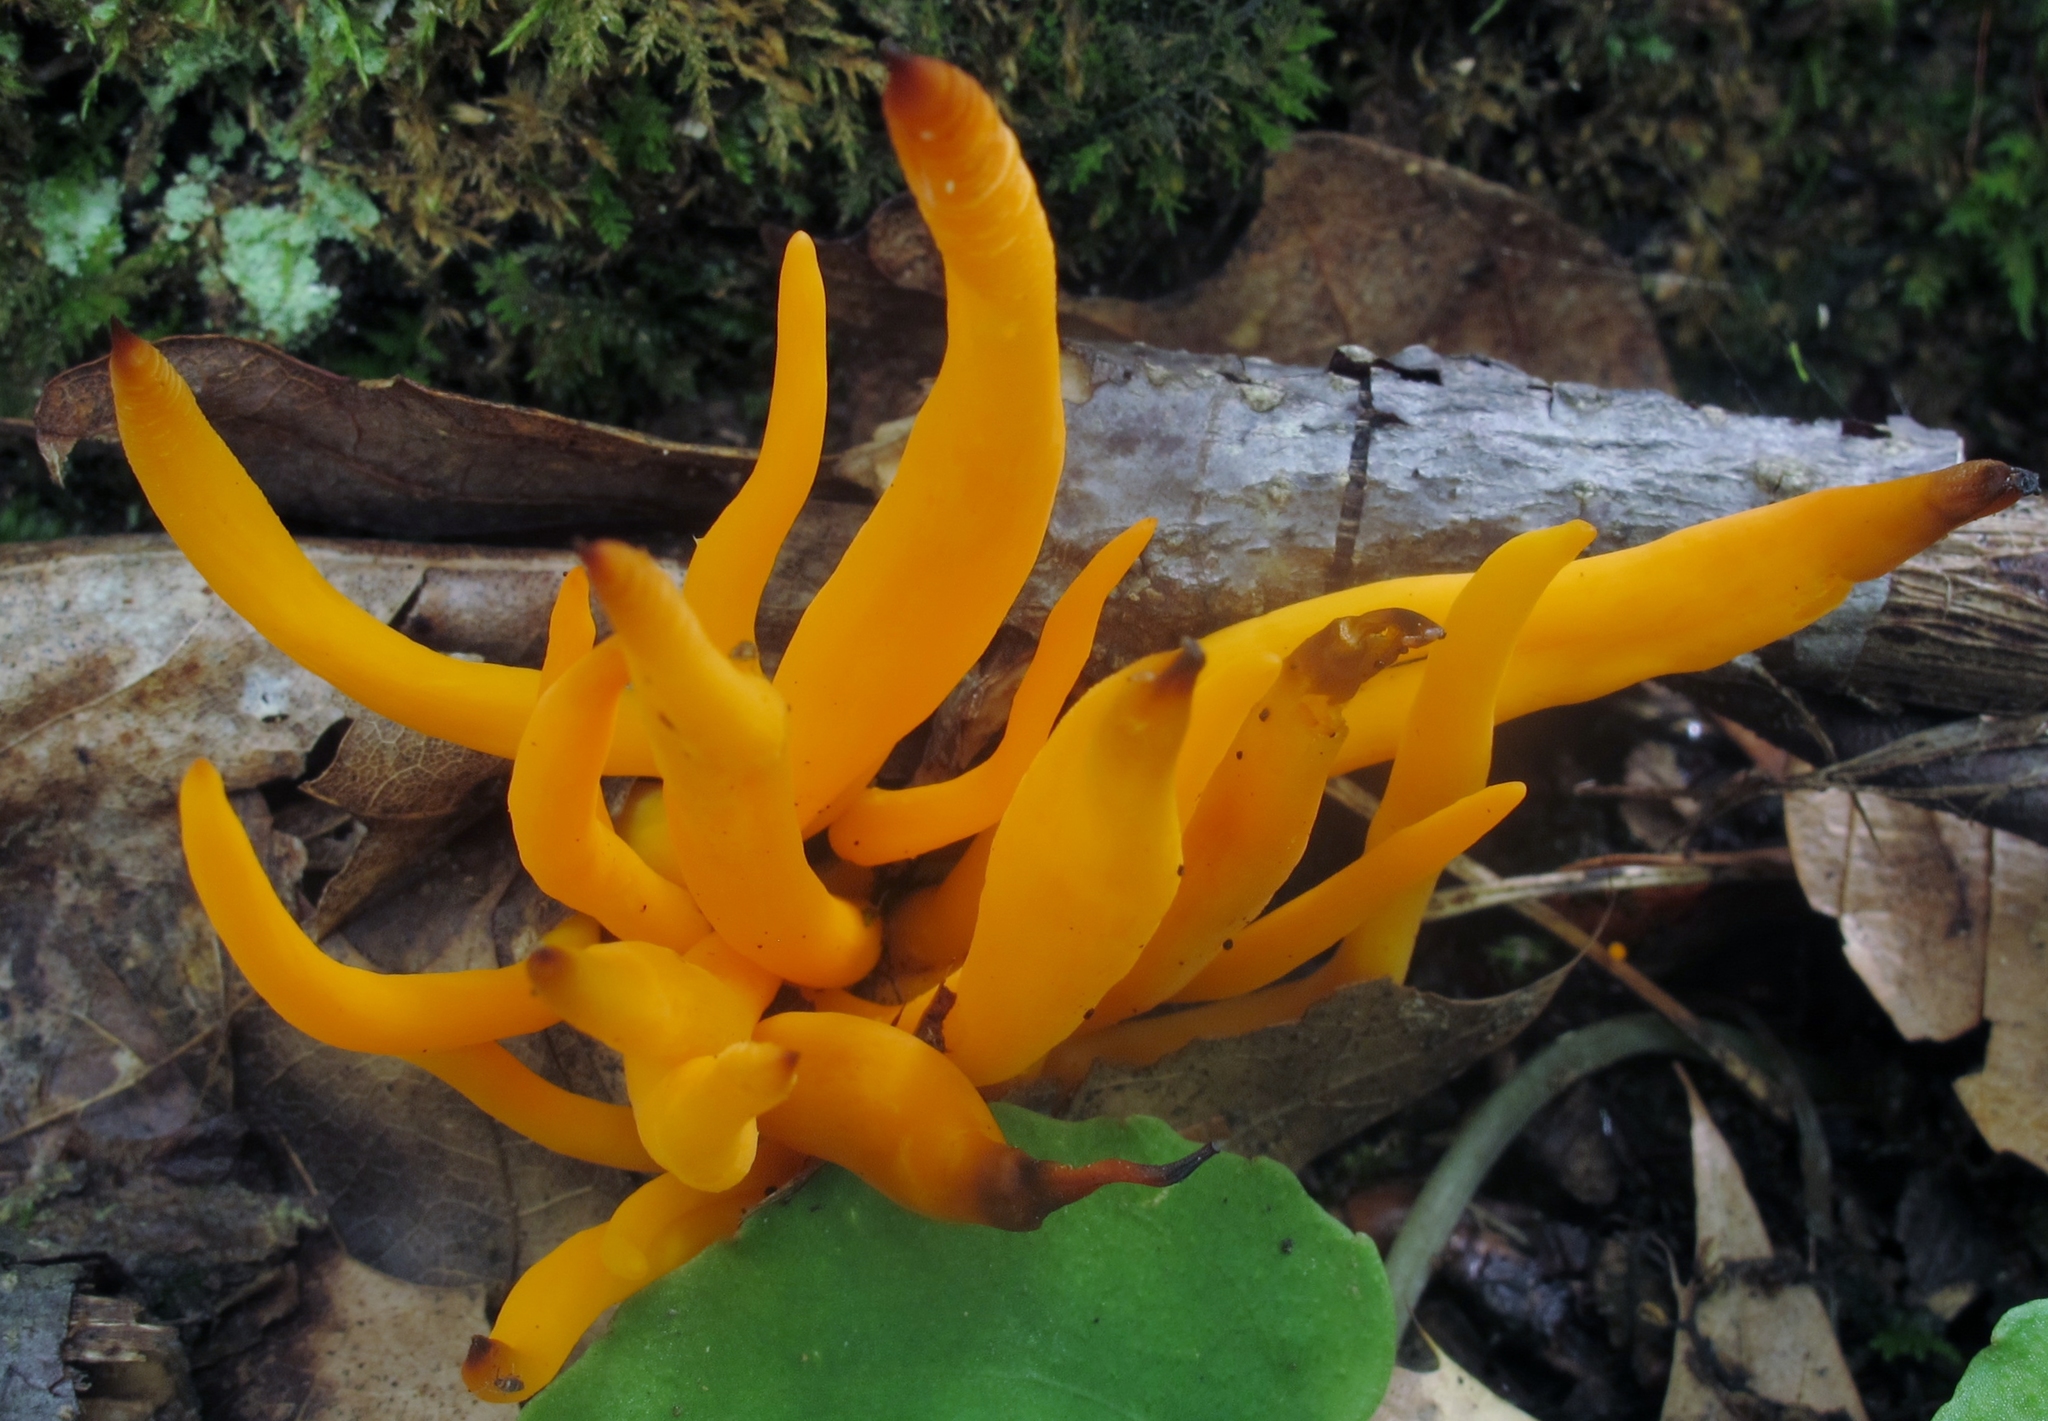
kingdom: Fungi
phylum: Basidiomycota
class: Agaricomycetes
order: Agaricales
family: Clavariaceae
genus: Clavulinopsis
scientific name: Clavulinopsis aurantiocinnabarina
